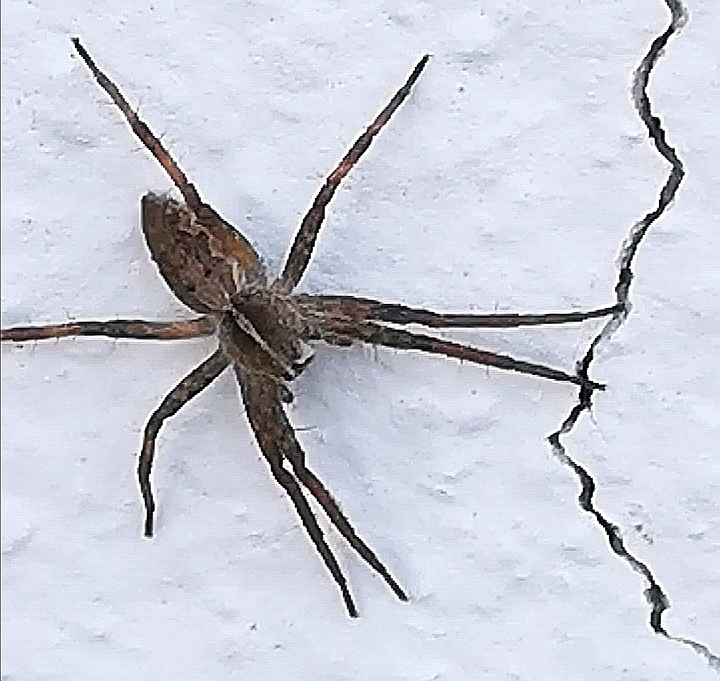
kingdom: Animalia
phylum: Arthropoda
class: Arachnida
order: Araneae
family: Pisauridae
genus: Pisaura
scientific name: Pisaura mirabilis
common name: Tent spider
